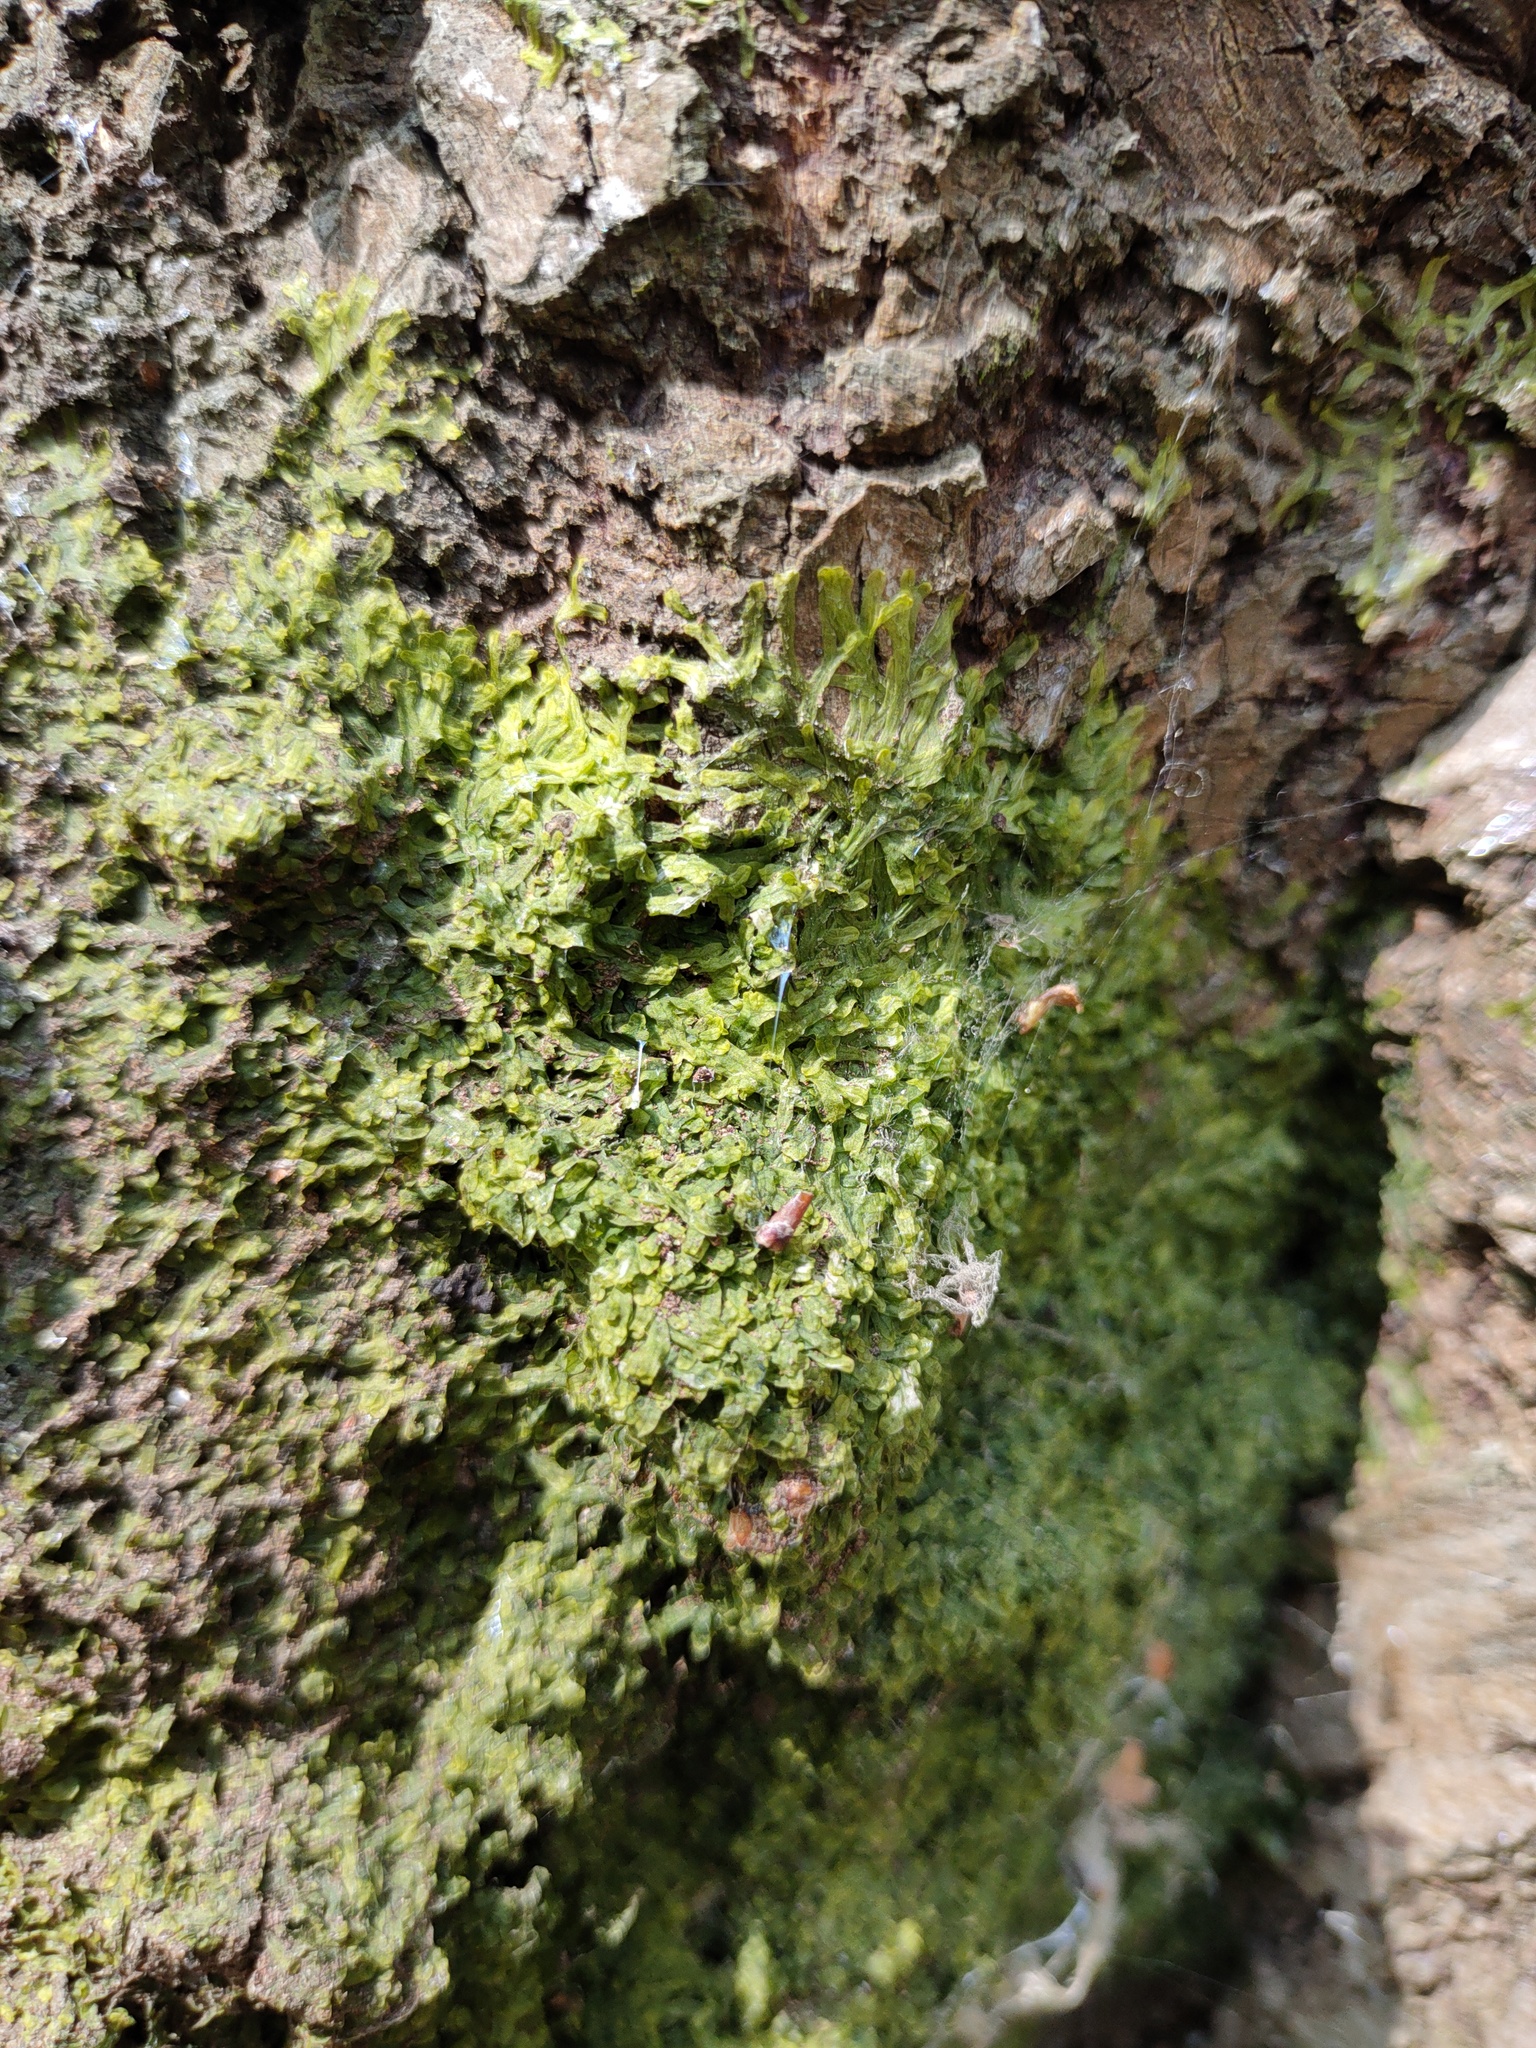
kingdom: Plantae
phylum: Marchantiophyta
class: Jungermanniopsida
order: Metzgeriales
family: Metzgeriaceae
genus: Metzgeria
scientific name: Metzgeria furcata
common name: Forked veilwort
